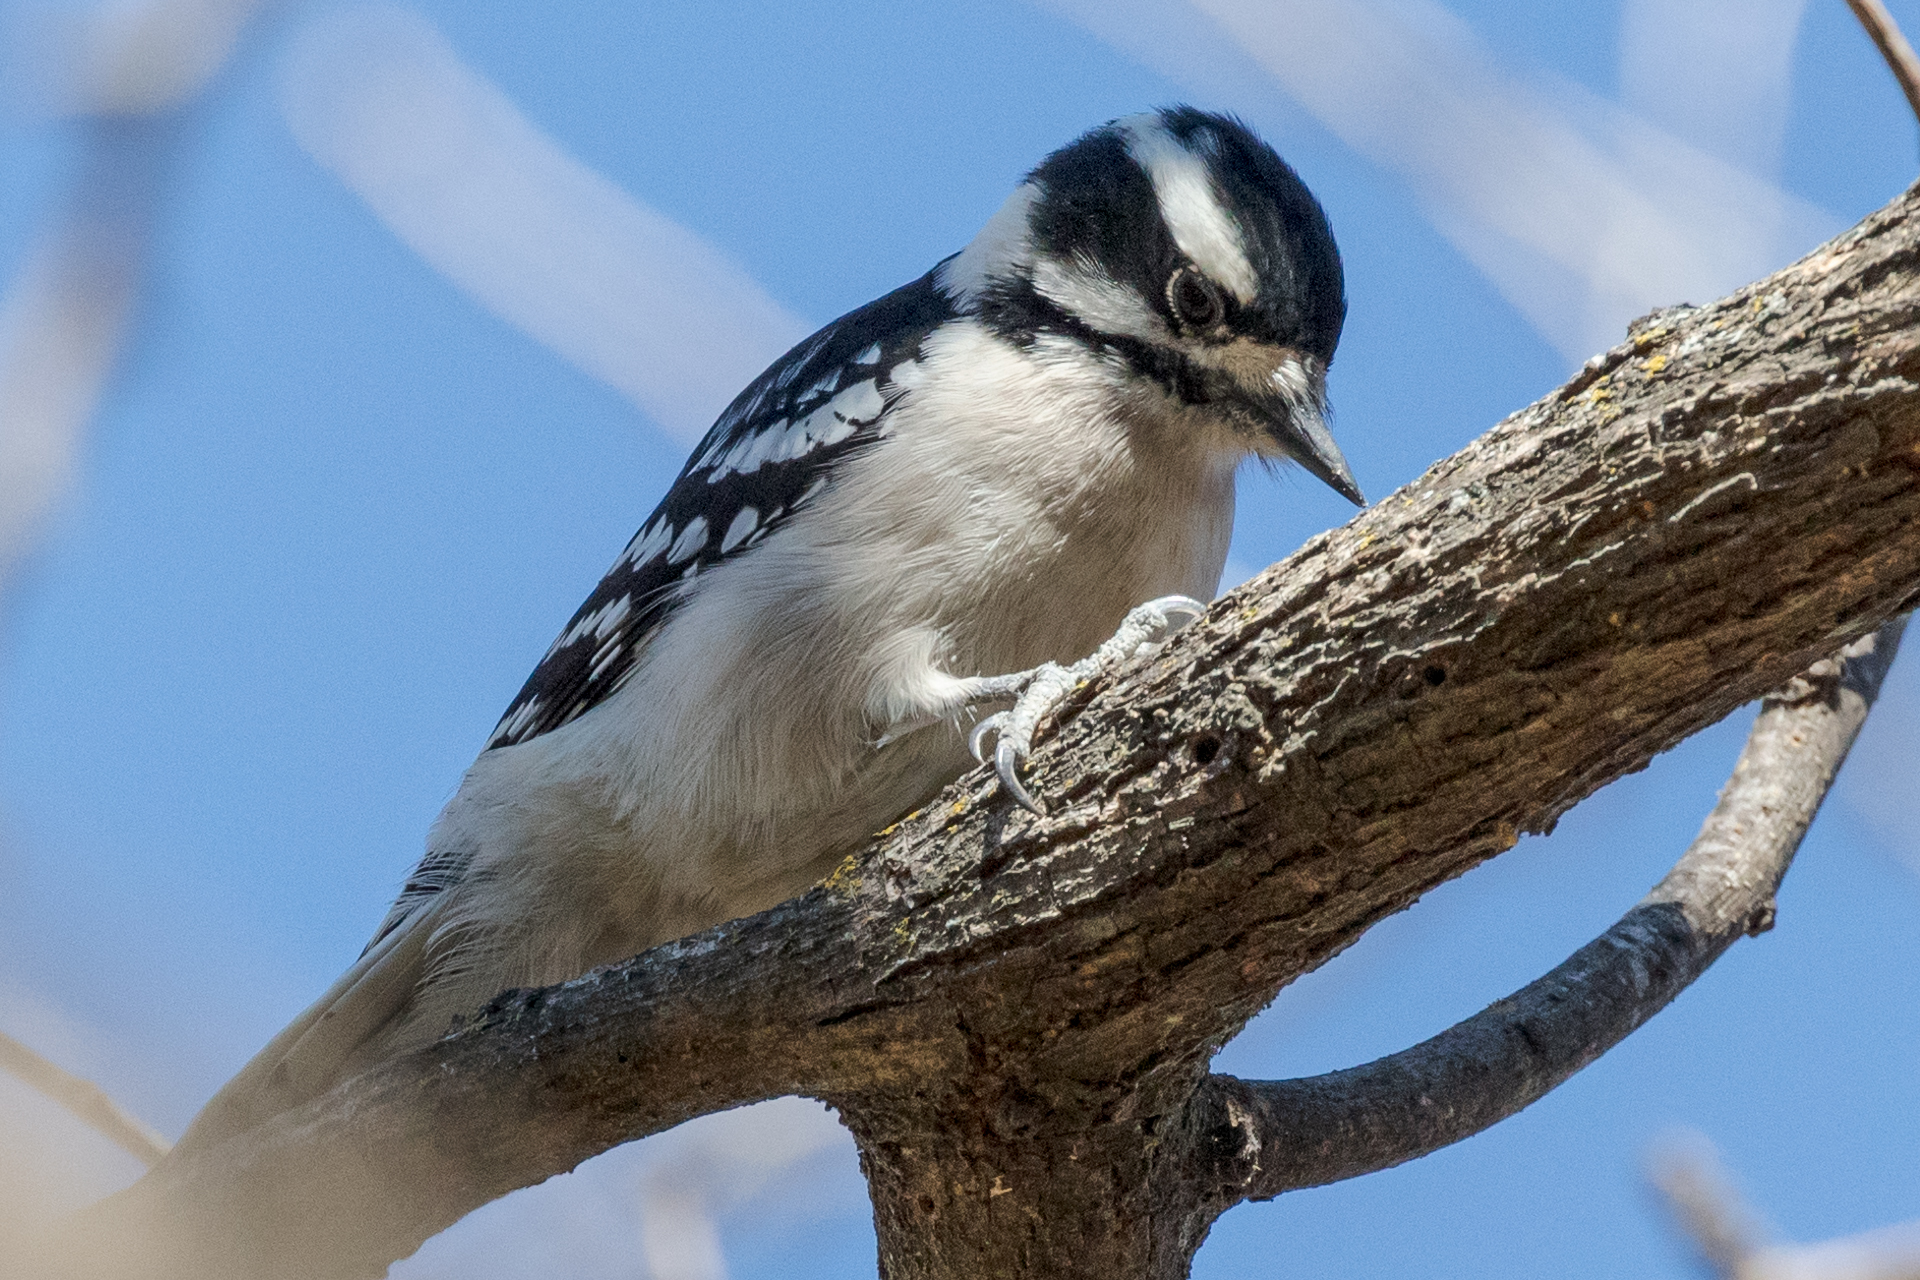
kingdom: Animalia
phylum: Chordata
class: Aves
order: Piciformes
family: Picidae
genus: Dryobates
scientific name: Dryobates pubescens
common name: Downy woodpecker
